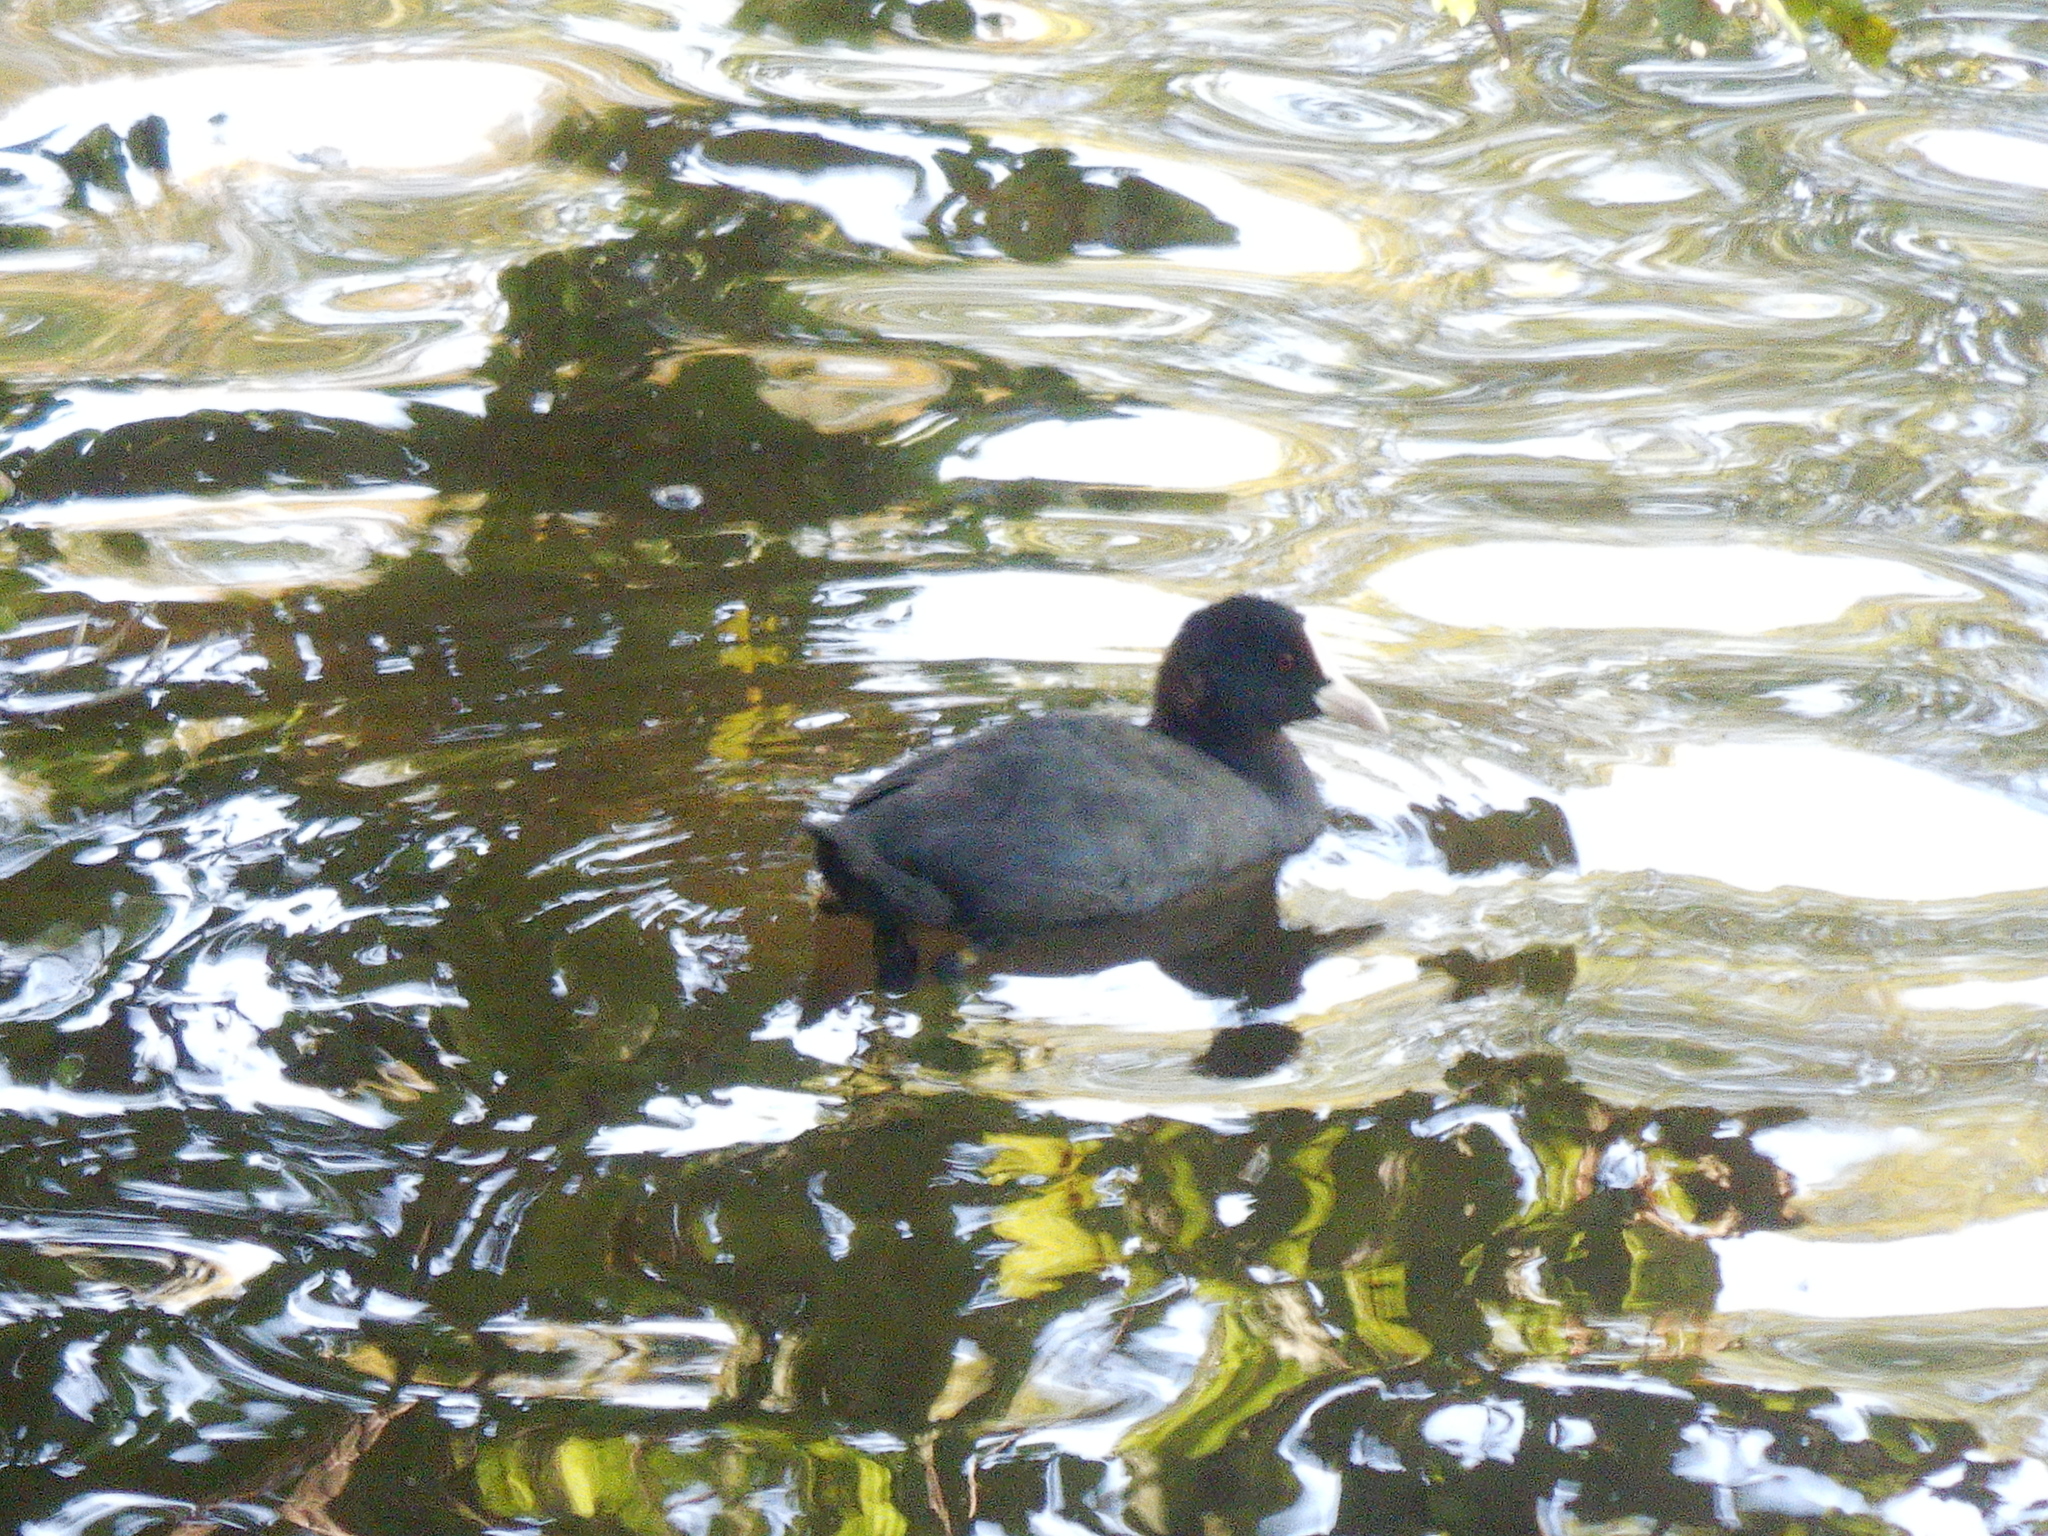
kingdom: Animalia
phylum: Chordata
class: Aves
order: Gruiformes
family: Rallidae
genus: Fulica
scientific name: Fulica atra
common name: Eurasian coot
